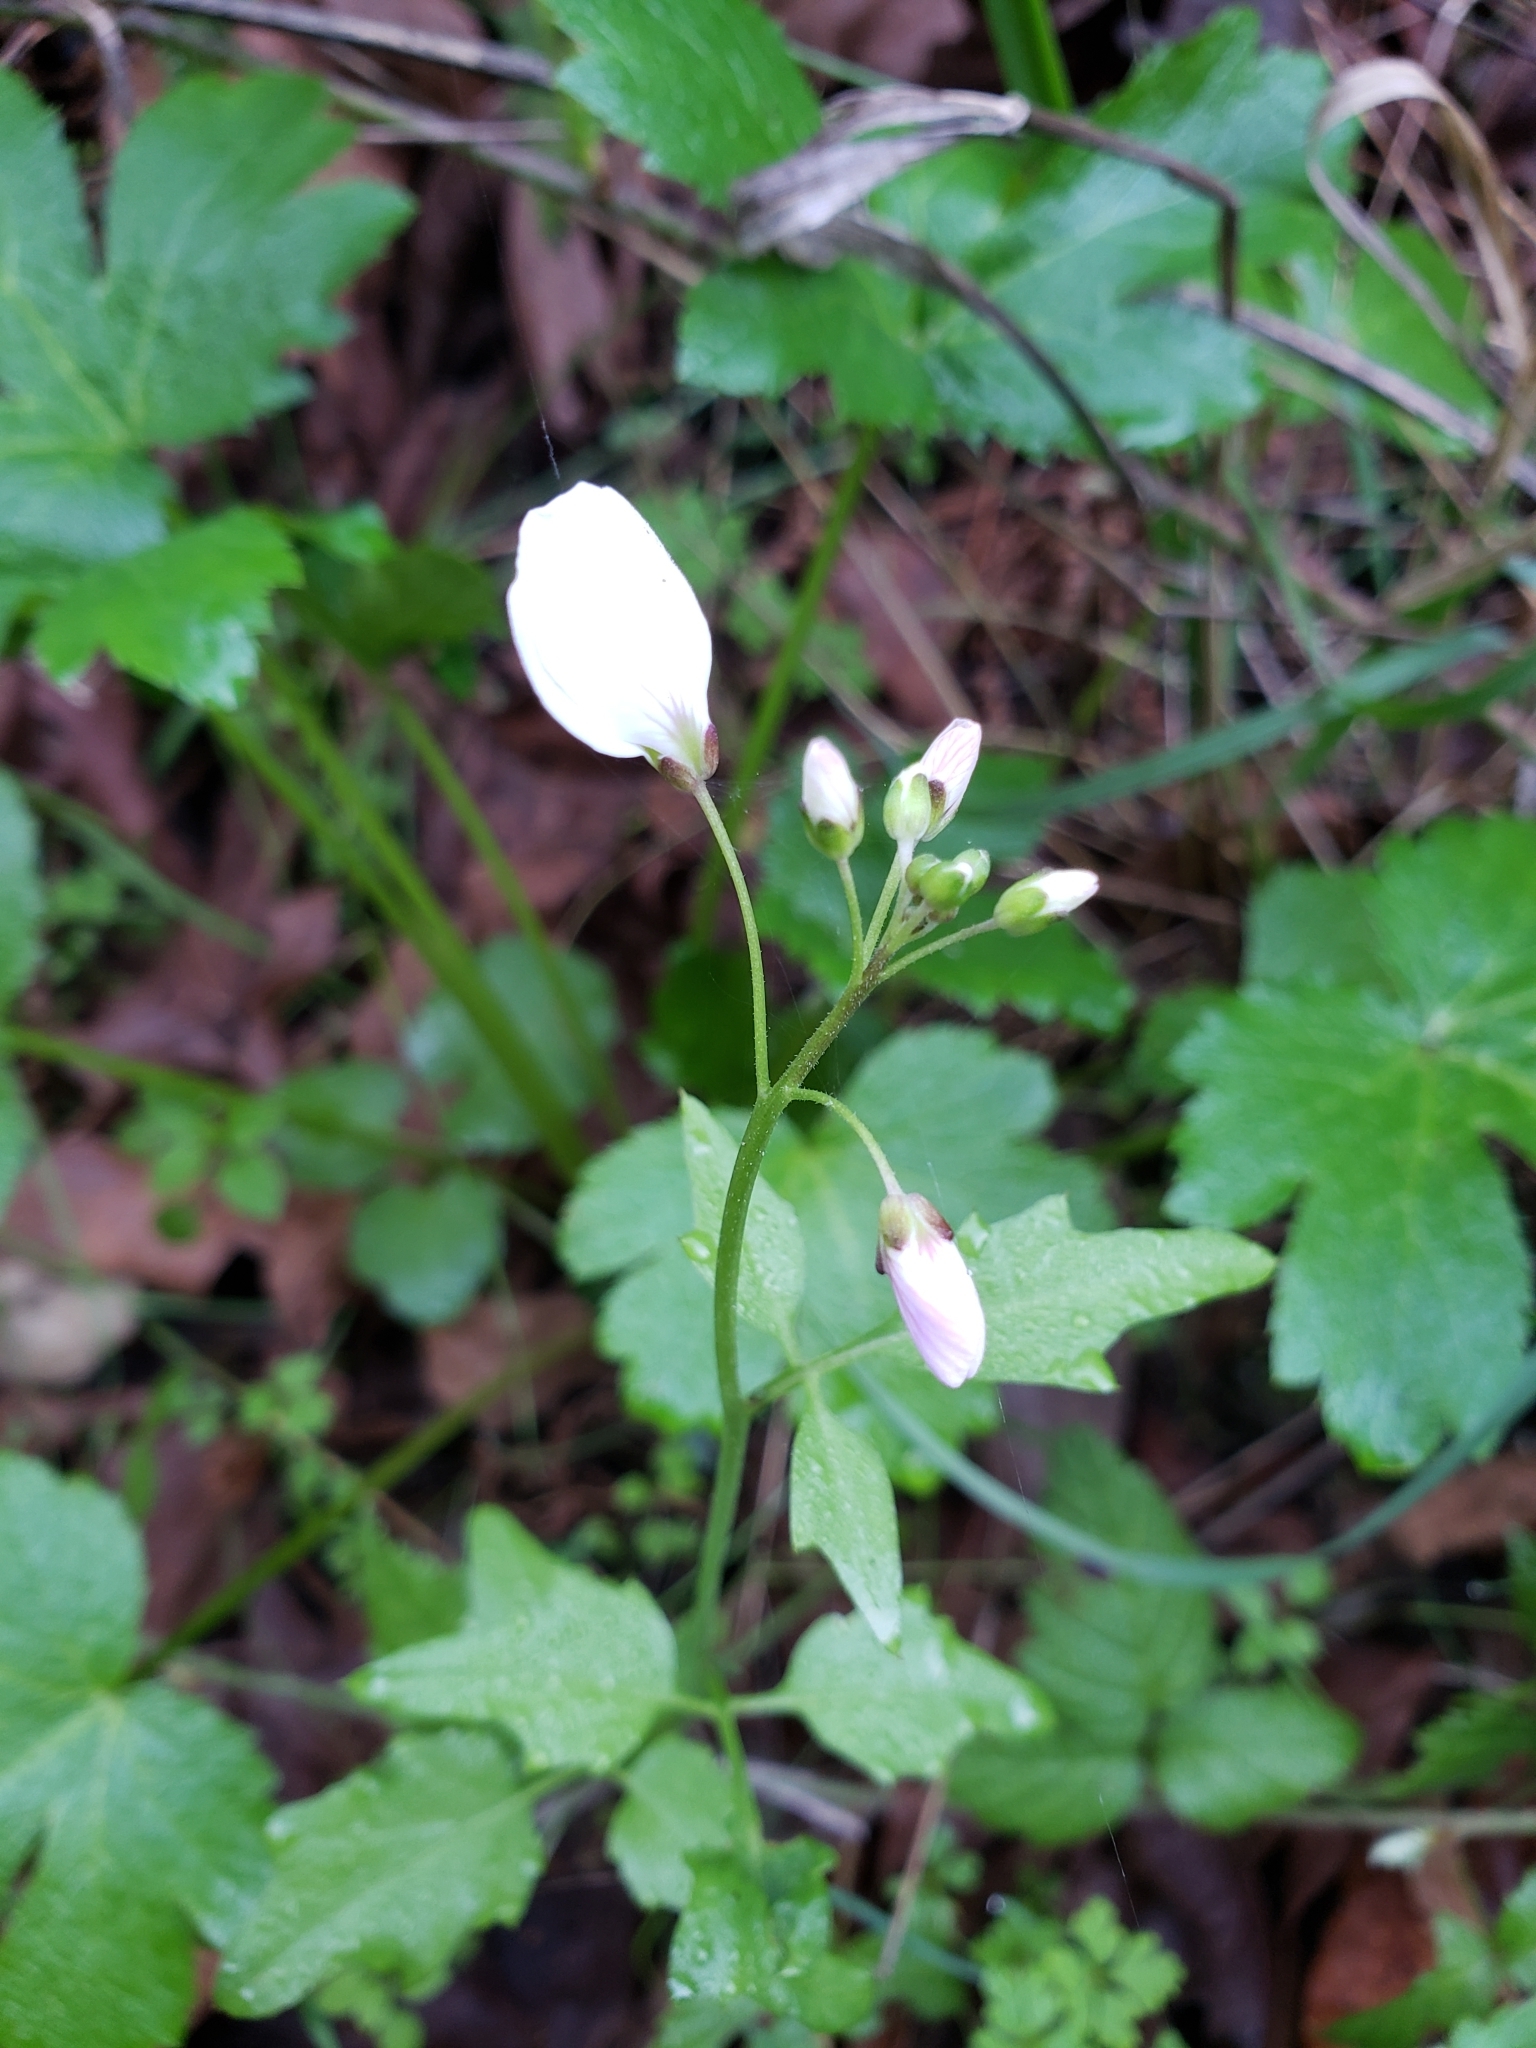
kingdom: Plantae
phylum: Tracheophyta
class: Magnoliopsida
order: Brassicales
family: Brassicaceae
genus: Cardamine
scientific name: Cardamine californica
